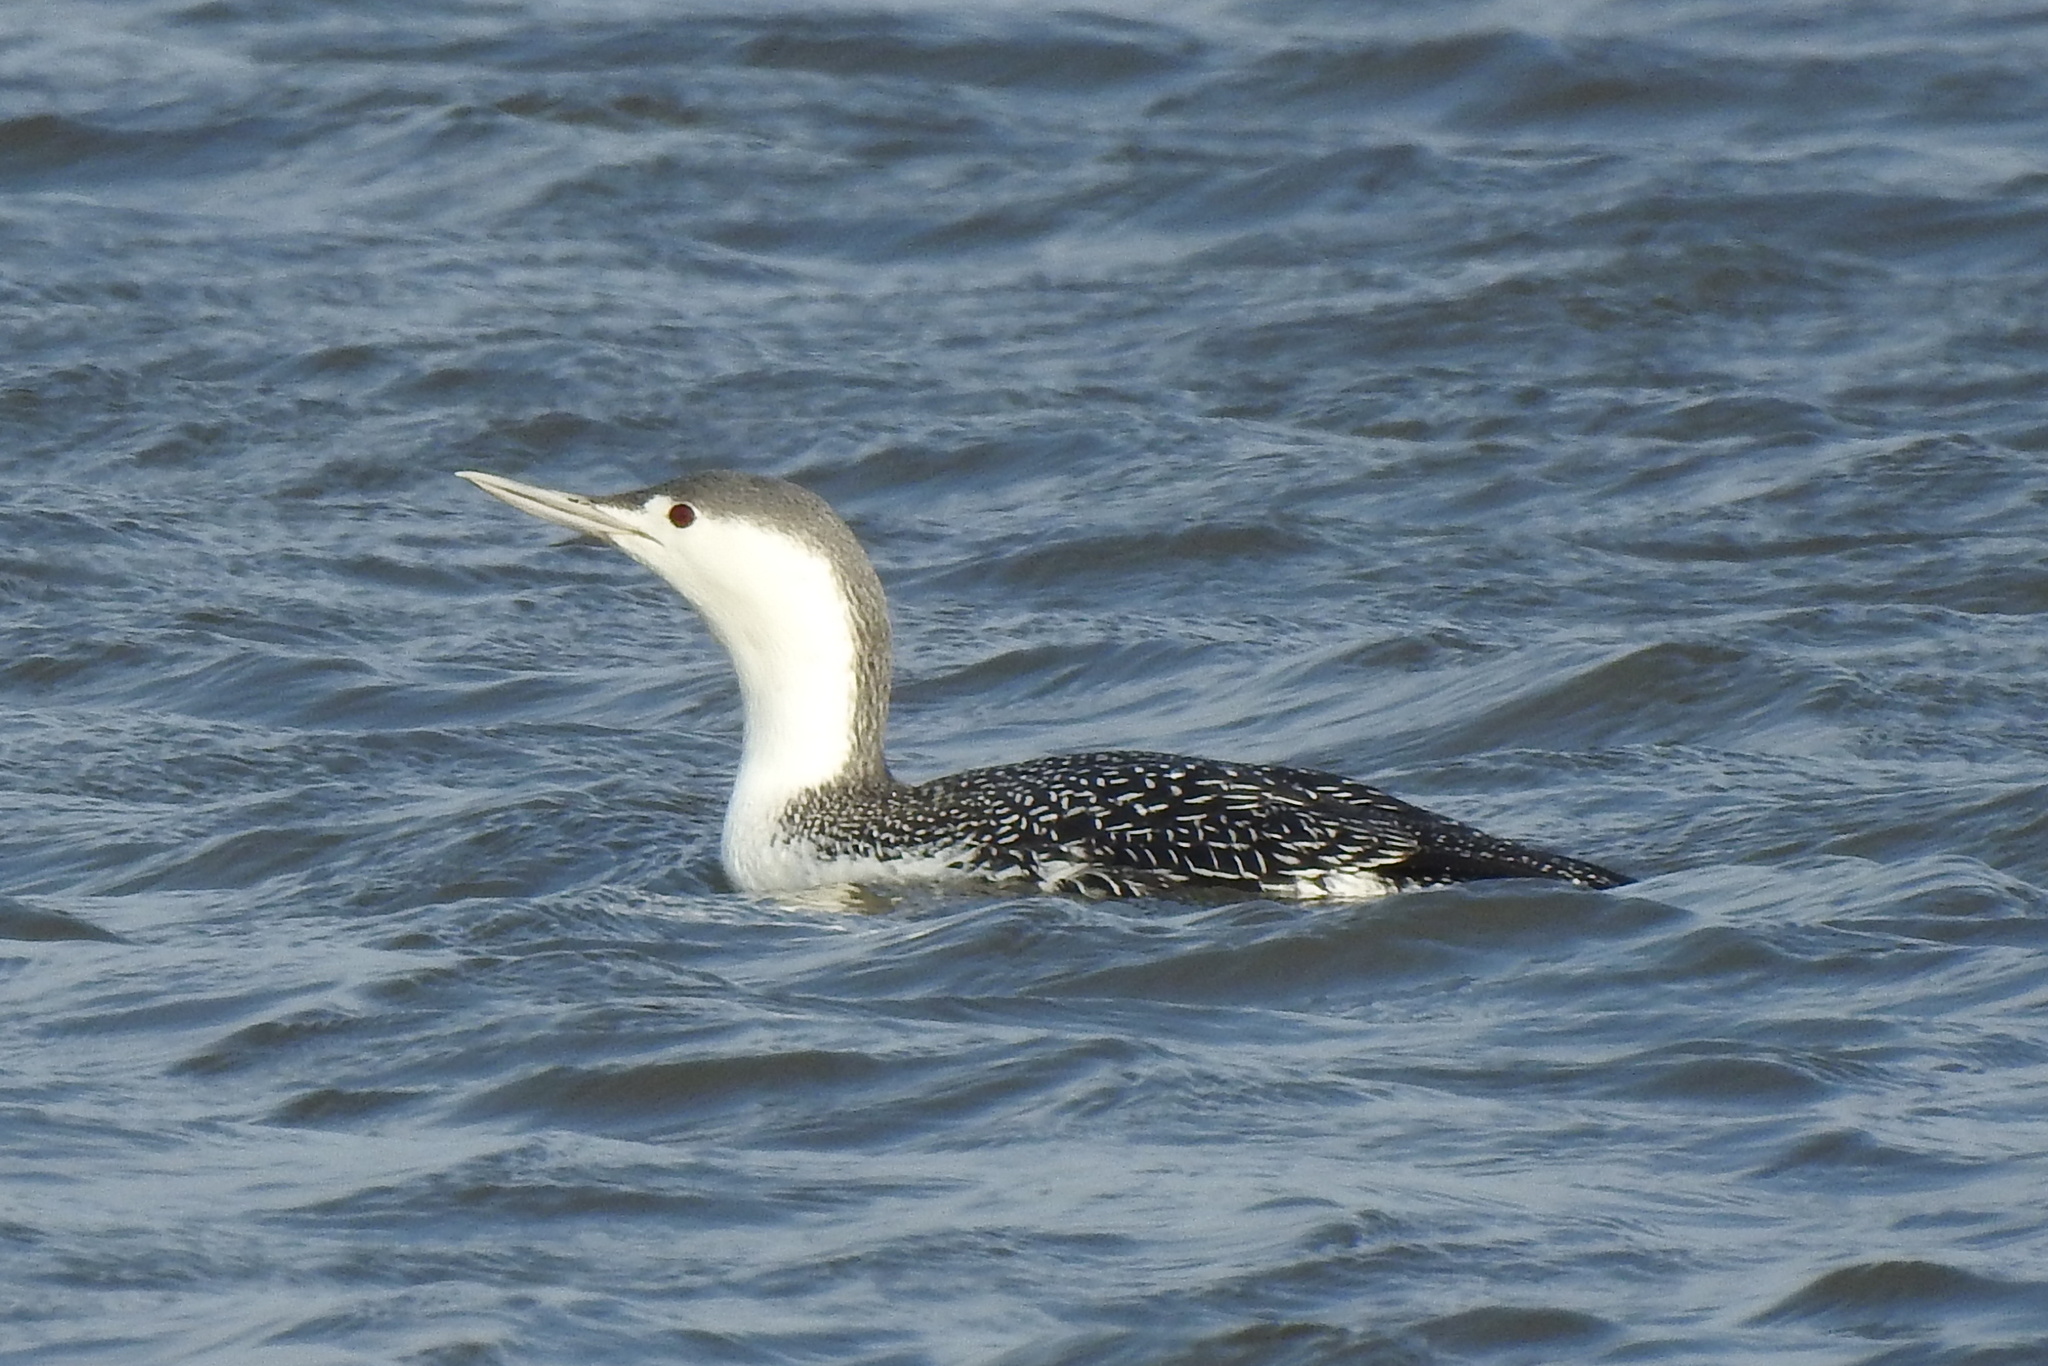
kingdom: Animalia
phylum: Chordata
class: Aves
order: Gaviiformes
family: Gaviidae
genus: Gavia
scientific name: Gavia stellata
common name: Red-throated loon
